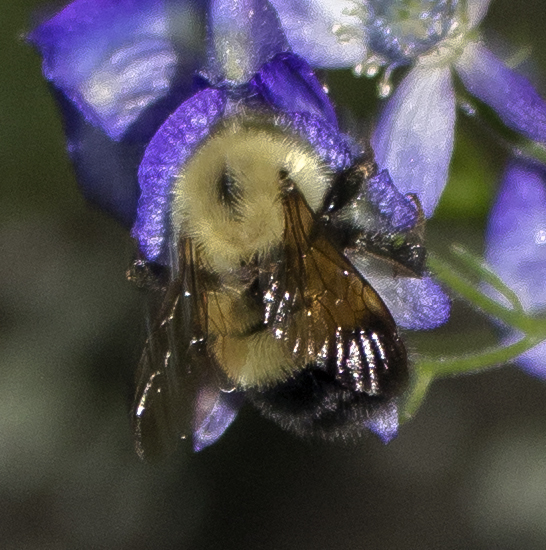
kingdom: Animalia
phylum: Arthropoda
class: Insecta
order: Hymenoptera
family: Apidae
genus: Pyrobombus
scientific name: Pyrobombus
